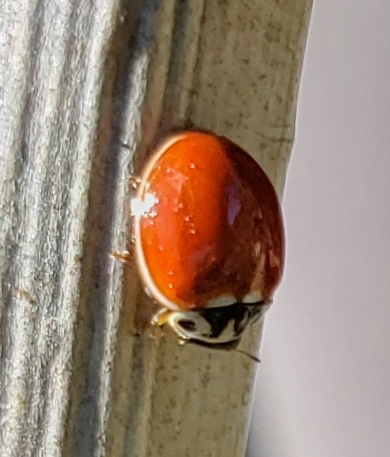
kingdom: Animalia
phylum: Arthropoda
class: Insecta
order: Coleoptera
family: Coccinellidae
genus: Cycloneda
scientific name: Cycloneda polita
